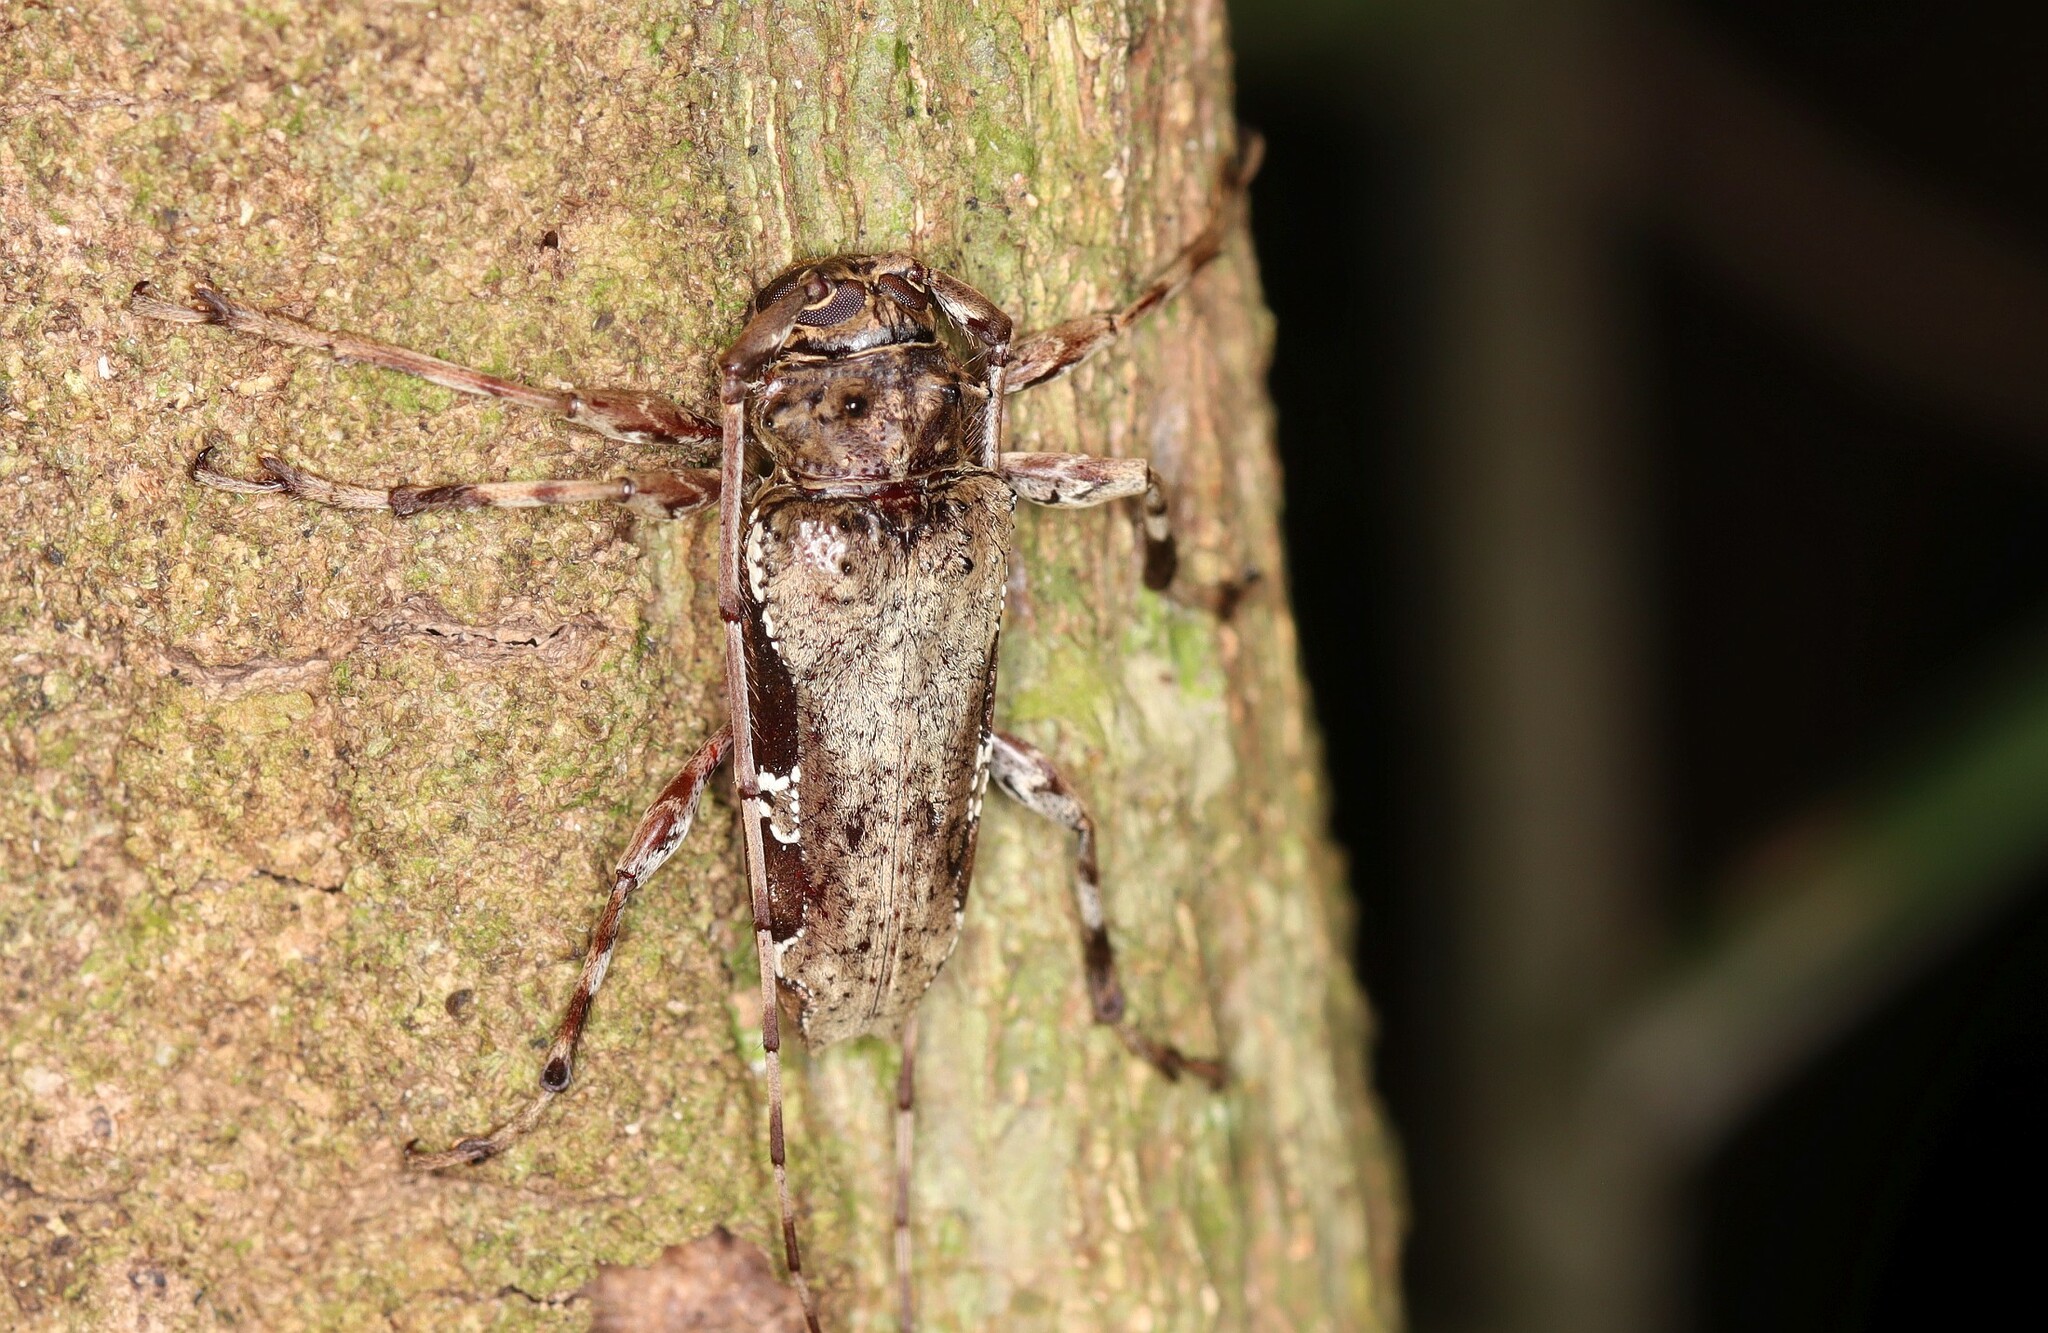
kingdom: Animalia
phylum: Arthropoda
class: Insecta
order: Coleoptera
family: Cerambycidae
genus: Oreodera
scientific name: Oreodera bituberculata
